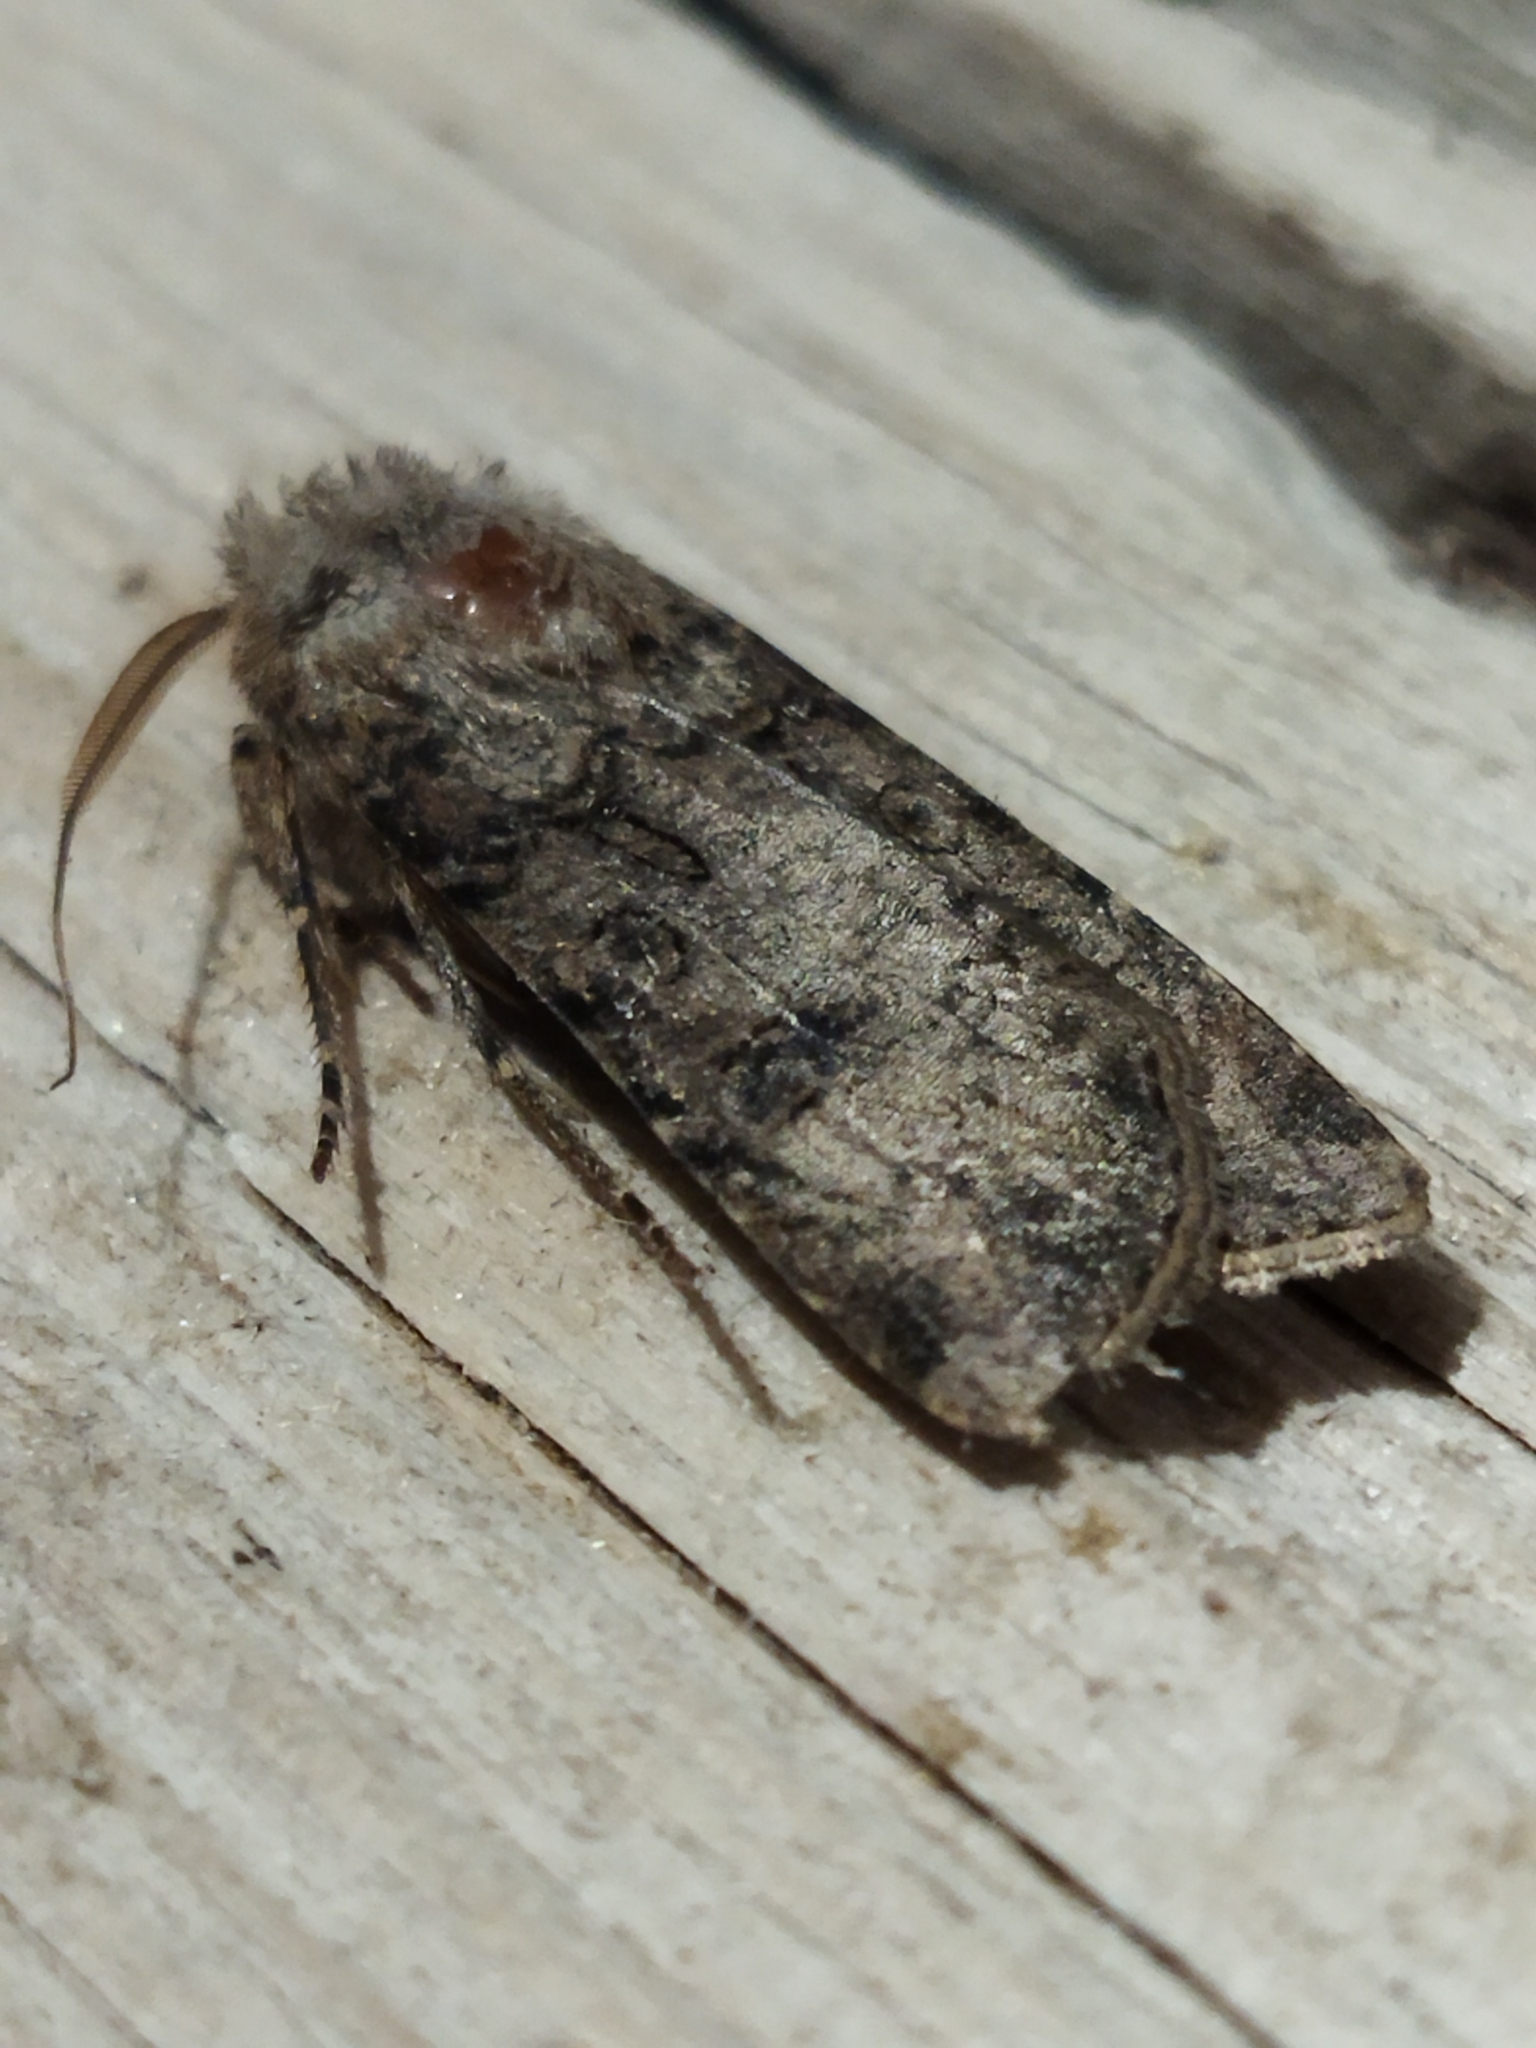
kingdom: Animalia
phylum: Arthropoda
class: Insecta
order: Lepidoptera
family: Noctuidae
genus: Agrotis
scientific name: Agrotis segetum
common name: Turnip moth
